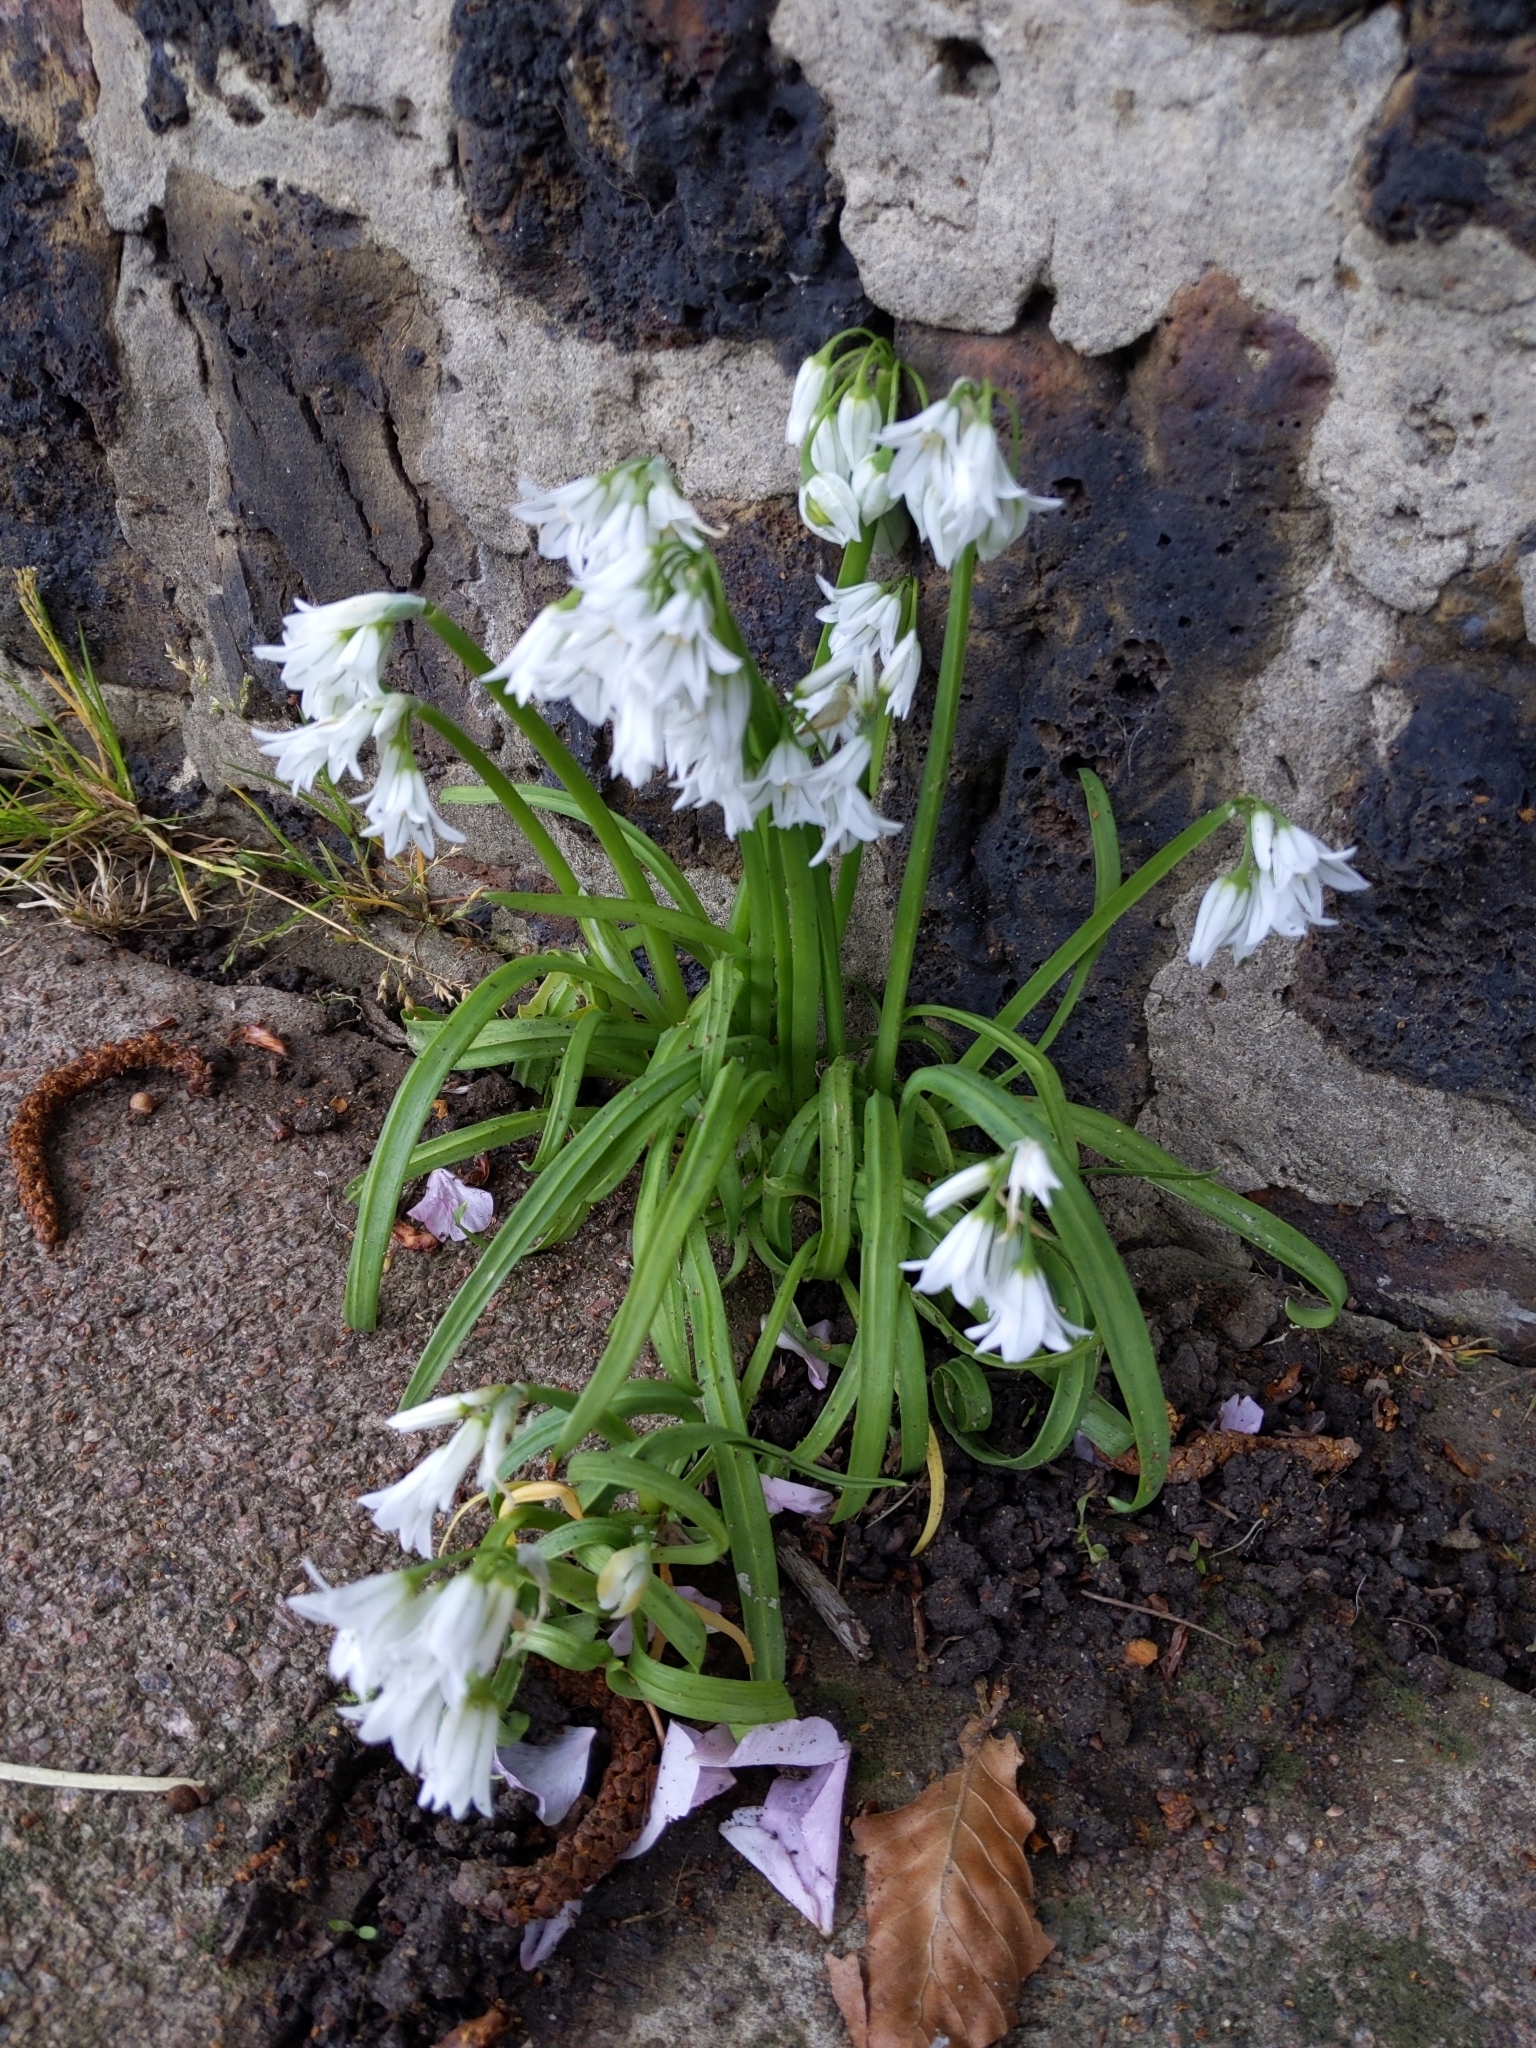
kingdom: Plantae
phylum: Tracheophyta
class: Liliopsida
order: Asparagales
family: Amaryllidaceae
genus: Allium
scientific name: Allium triquetrum
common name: Three-cornered garlic
